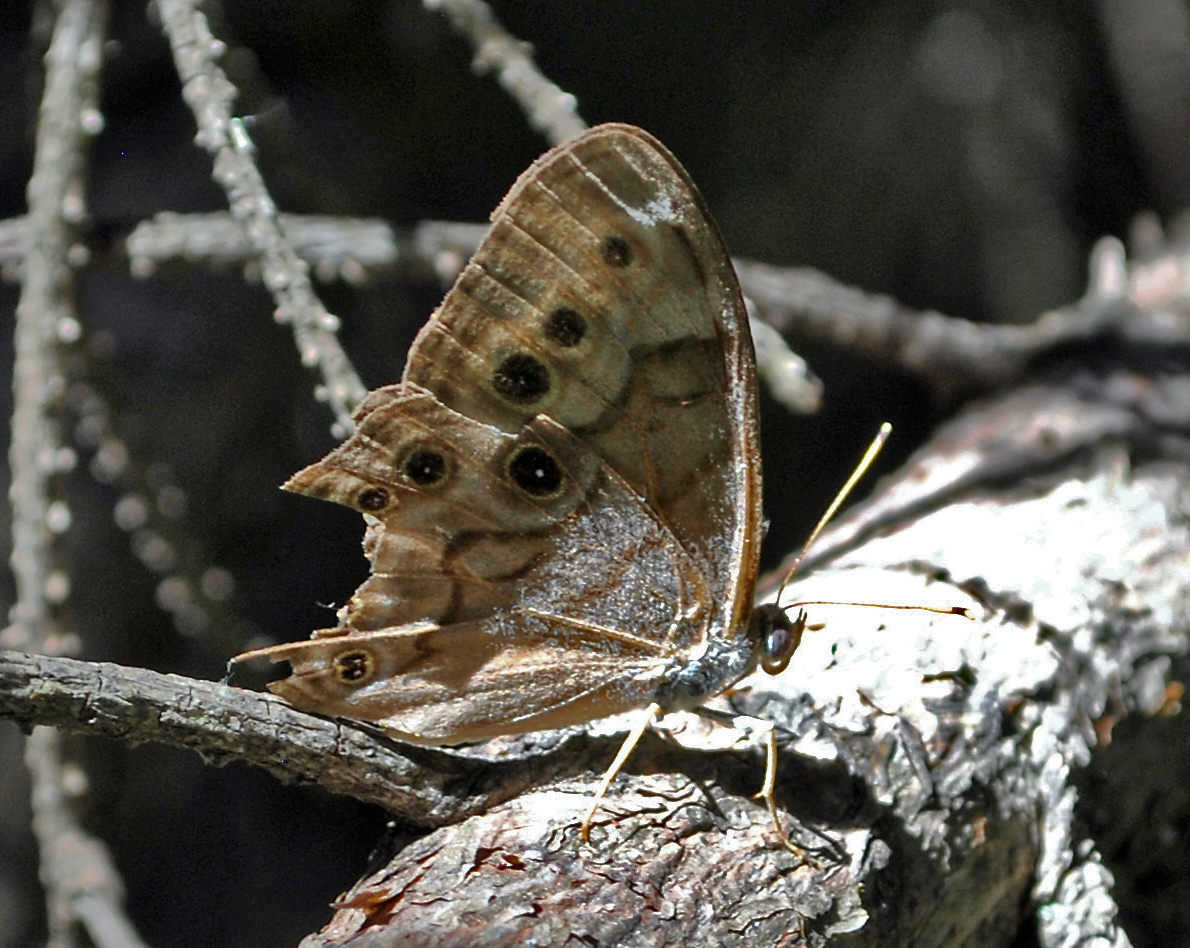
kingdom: Animalia
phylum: Arthropoda
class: Insecta
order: Lepidoptera
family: Nymphalidae
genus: Lethe
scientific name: Lethe anthedon
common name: Northern pearly-eye
